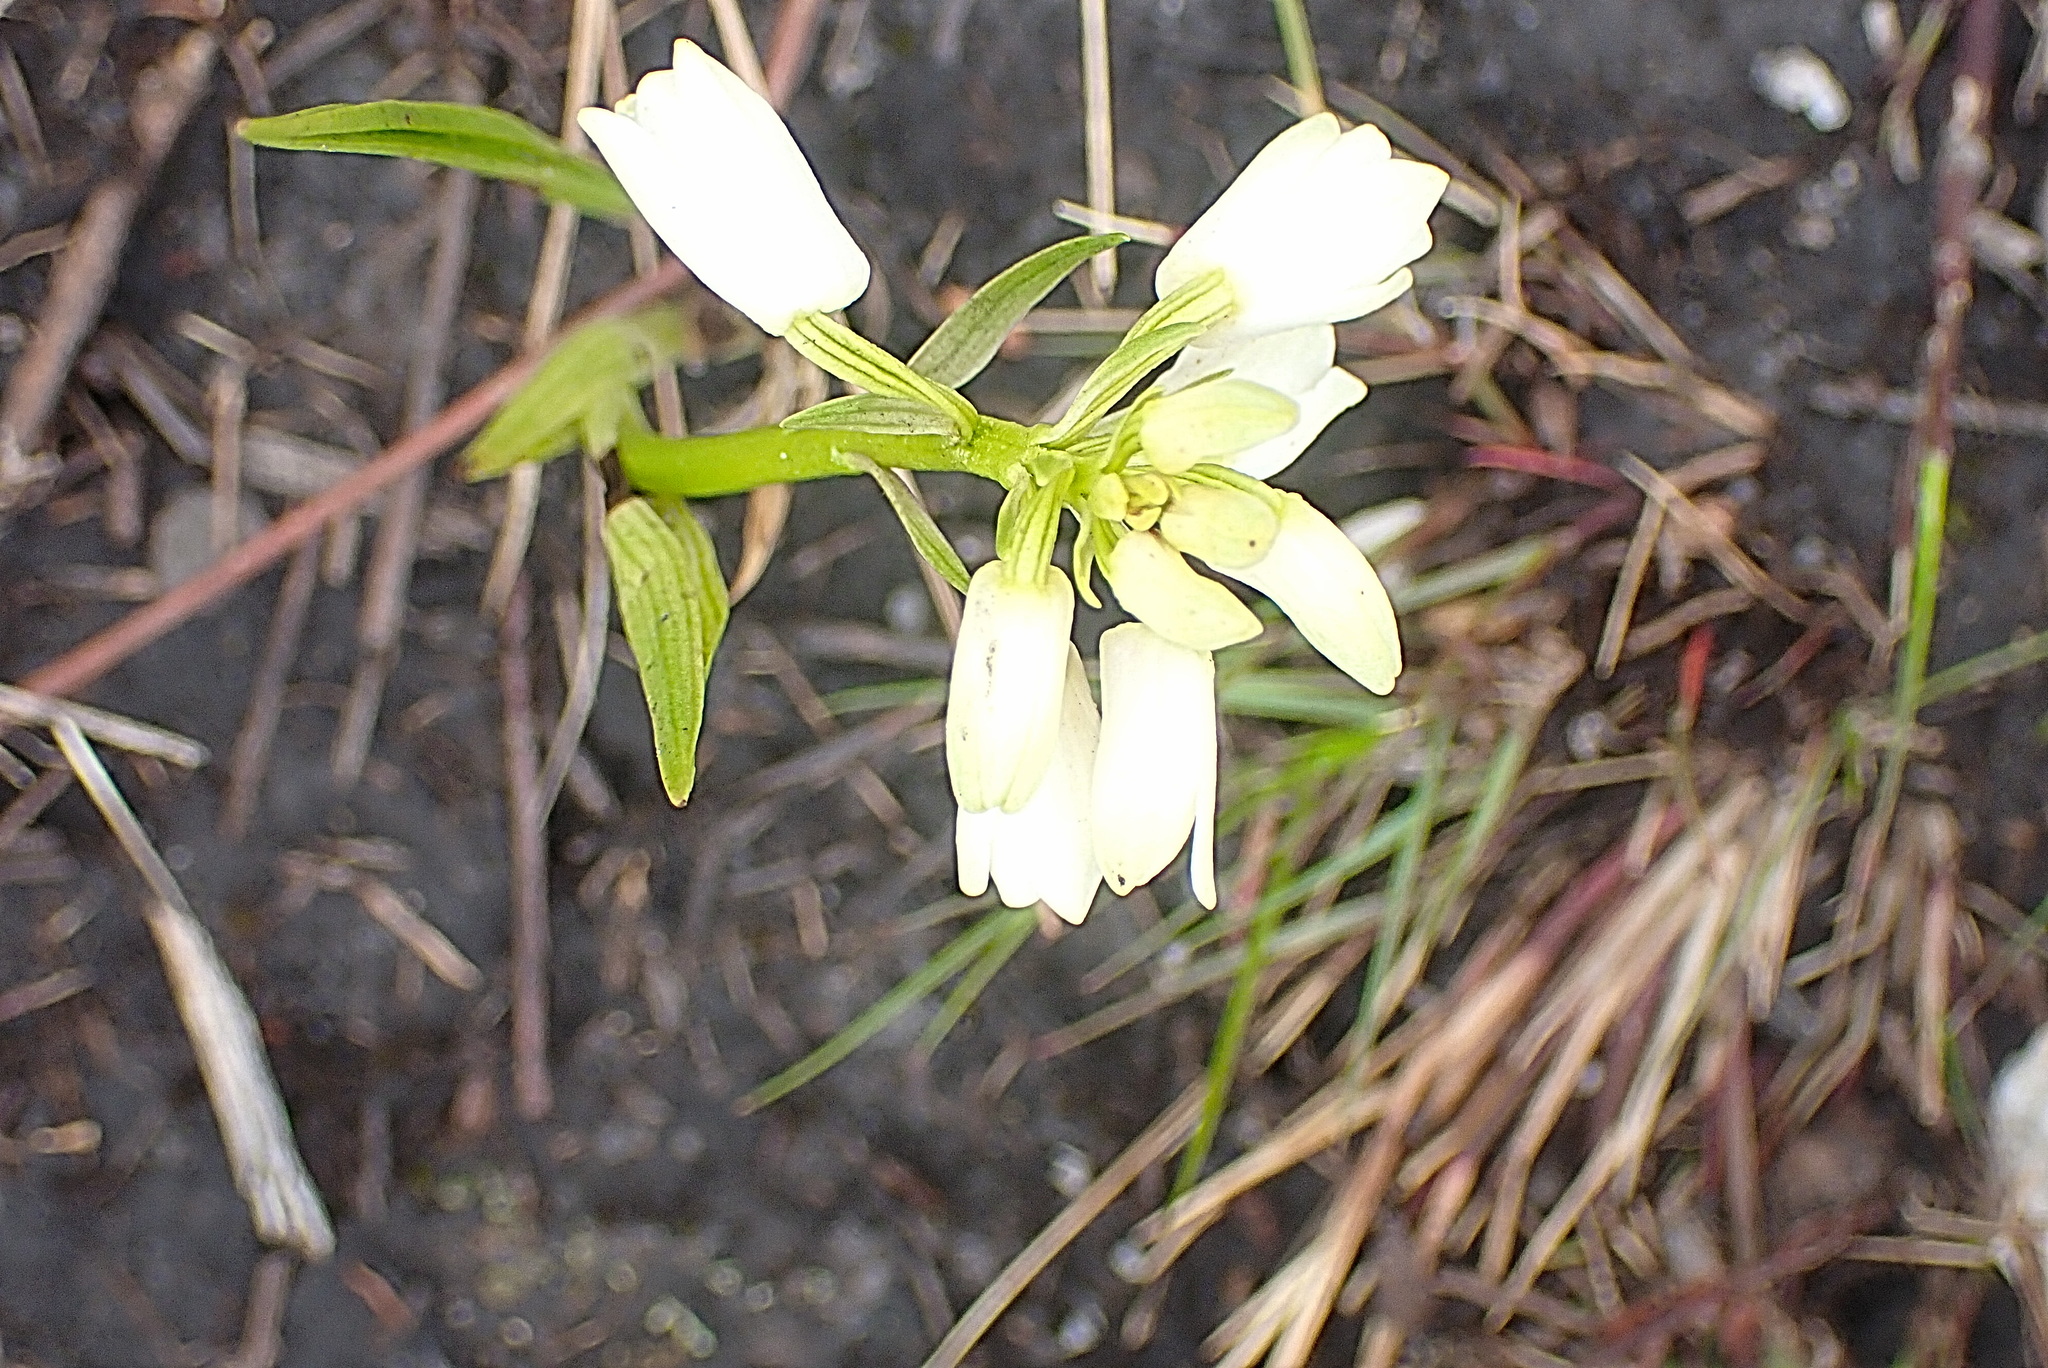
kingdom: Plantae
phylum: Tracheophyta
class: Liliopsida
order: Asparagales
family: Orchidaceae
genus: Eulophia
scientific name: Eulophia aculeata
